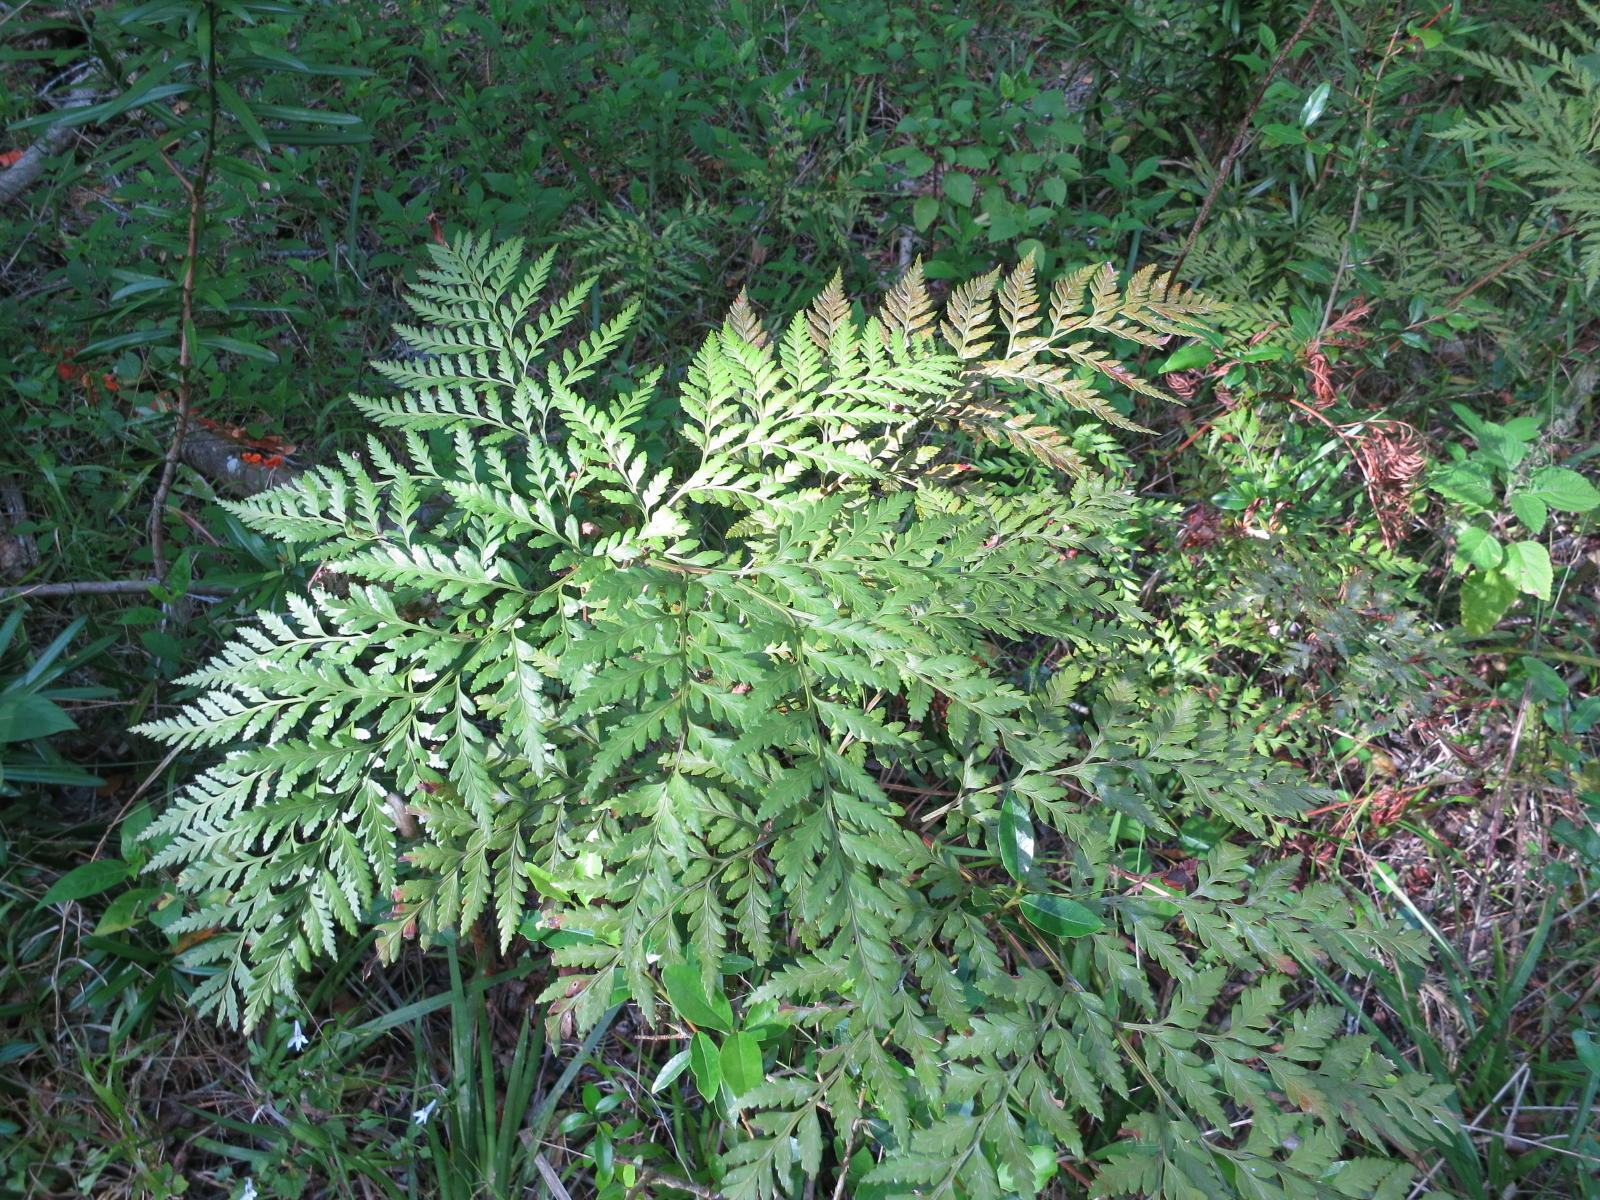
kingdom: Plantae
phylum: Tracheophyta
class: Polypodiopsida
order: Polypodiales
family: Dryopteridaceae
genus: Rumohra
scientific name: Rumohra adiantiformis
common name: Leather fern
